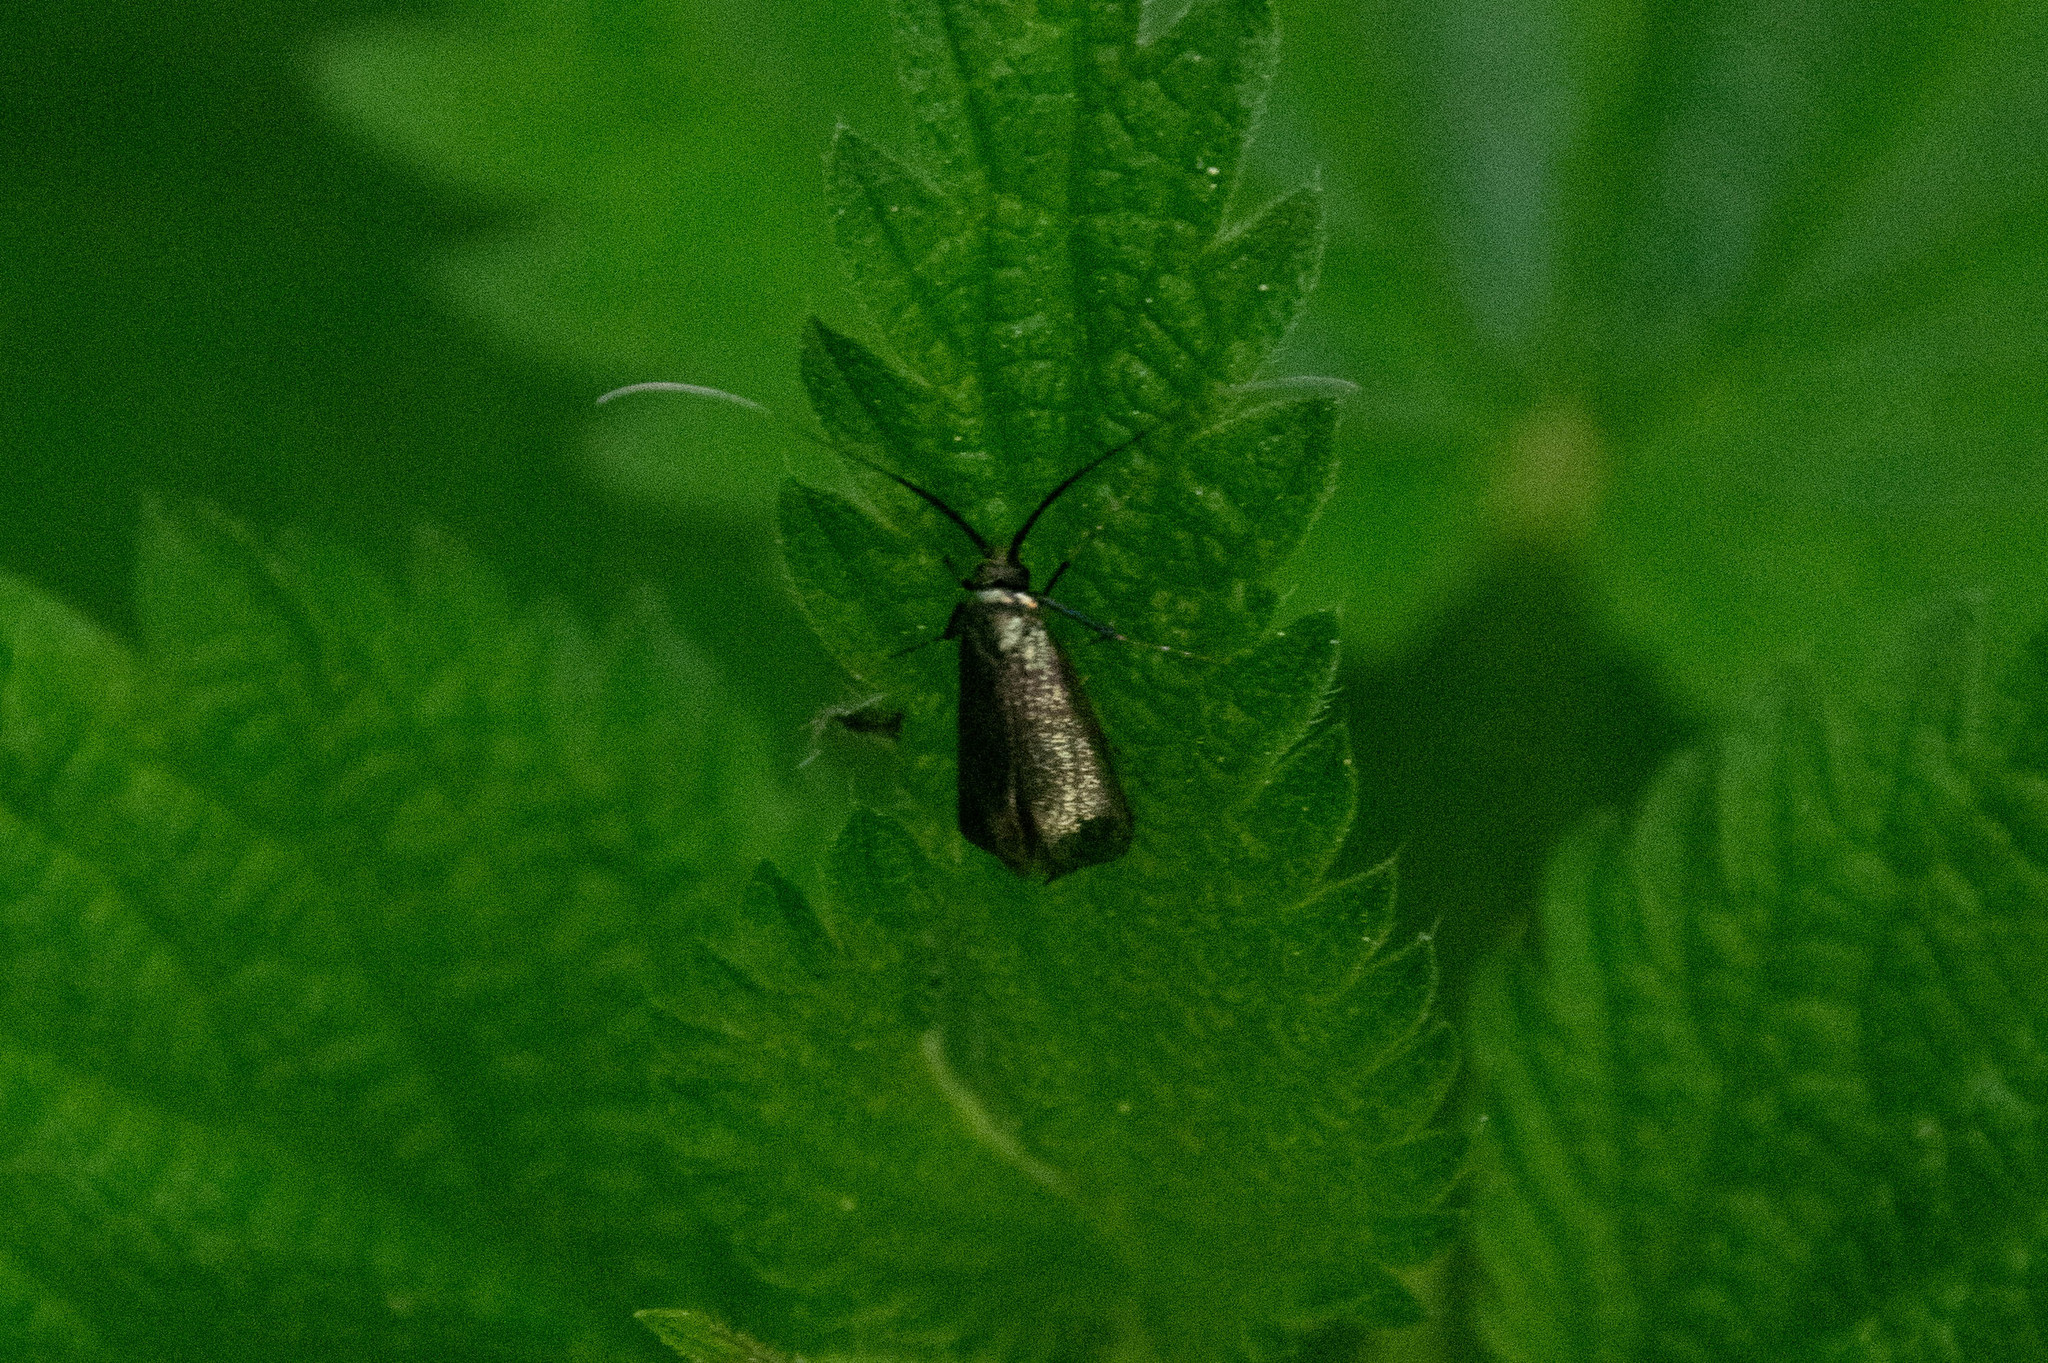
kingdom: Animalia
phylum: Arthropoda
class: Insecta
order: Lepidoptera
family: Adelidae
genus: Adela
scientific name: Adela viridella
